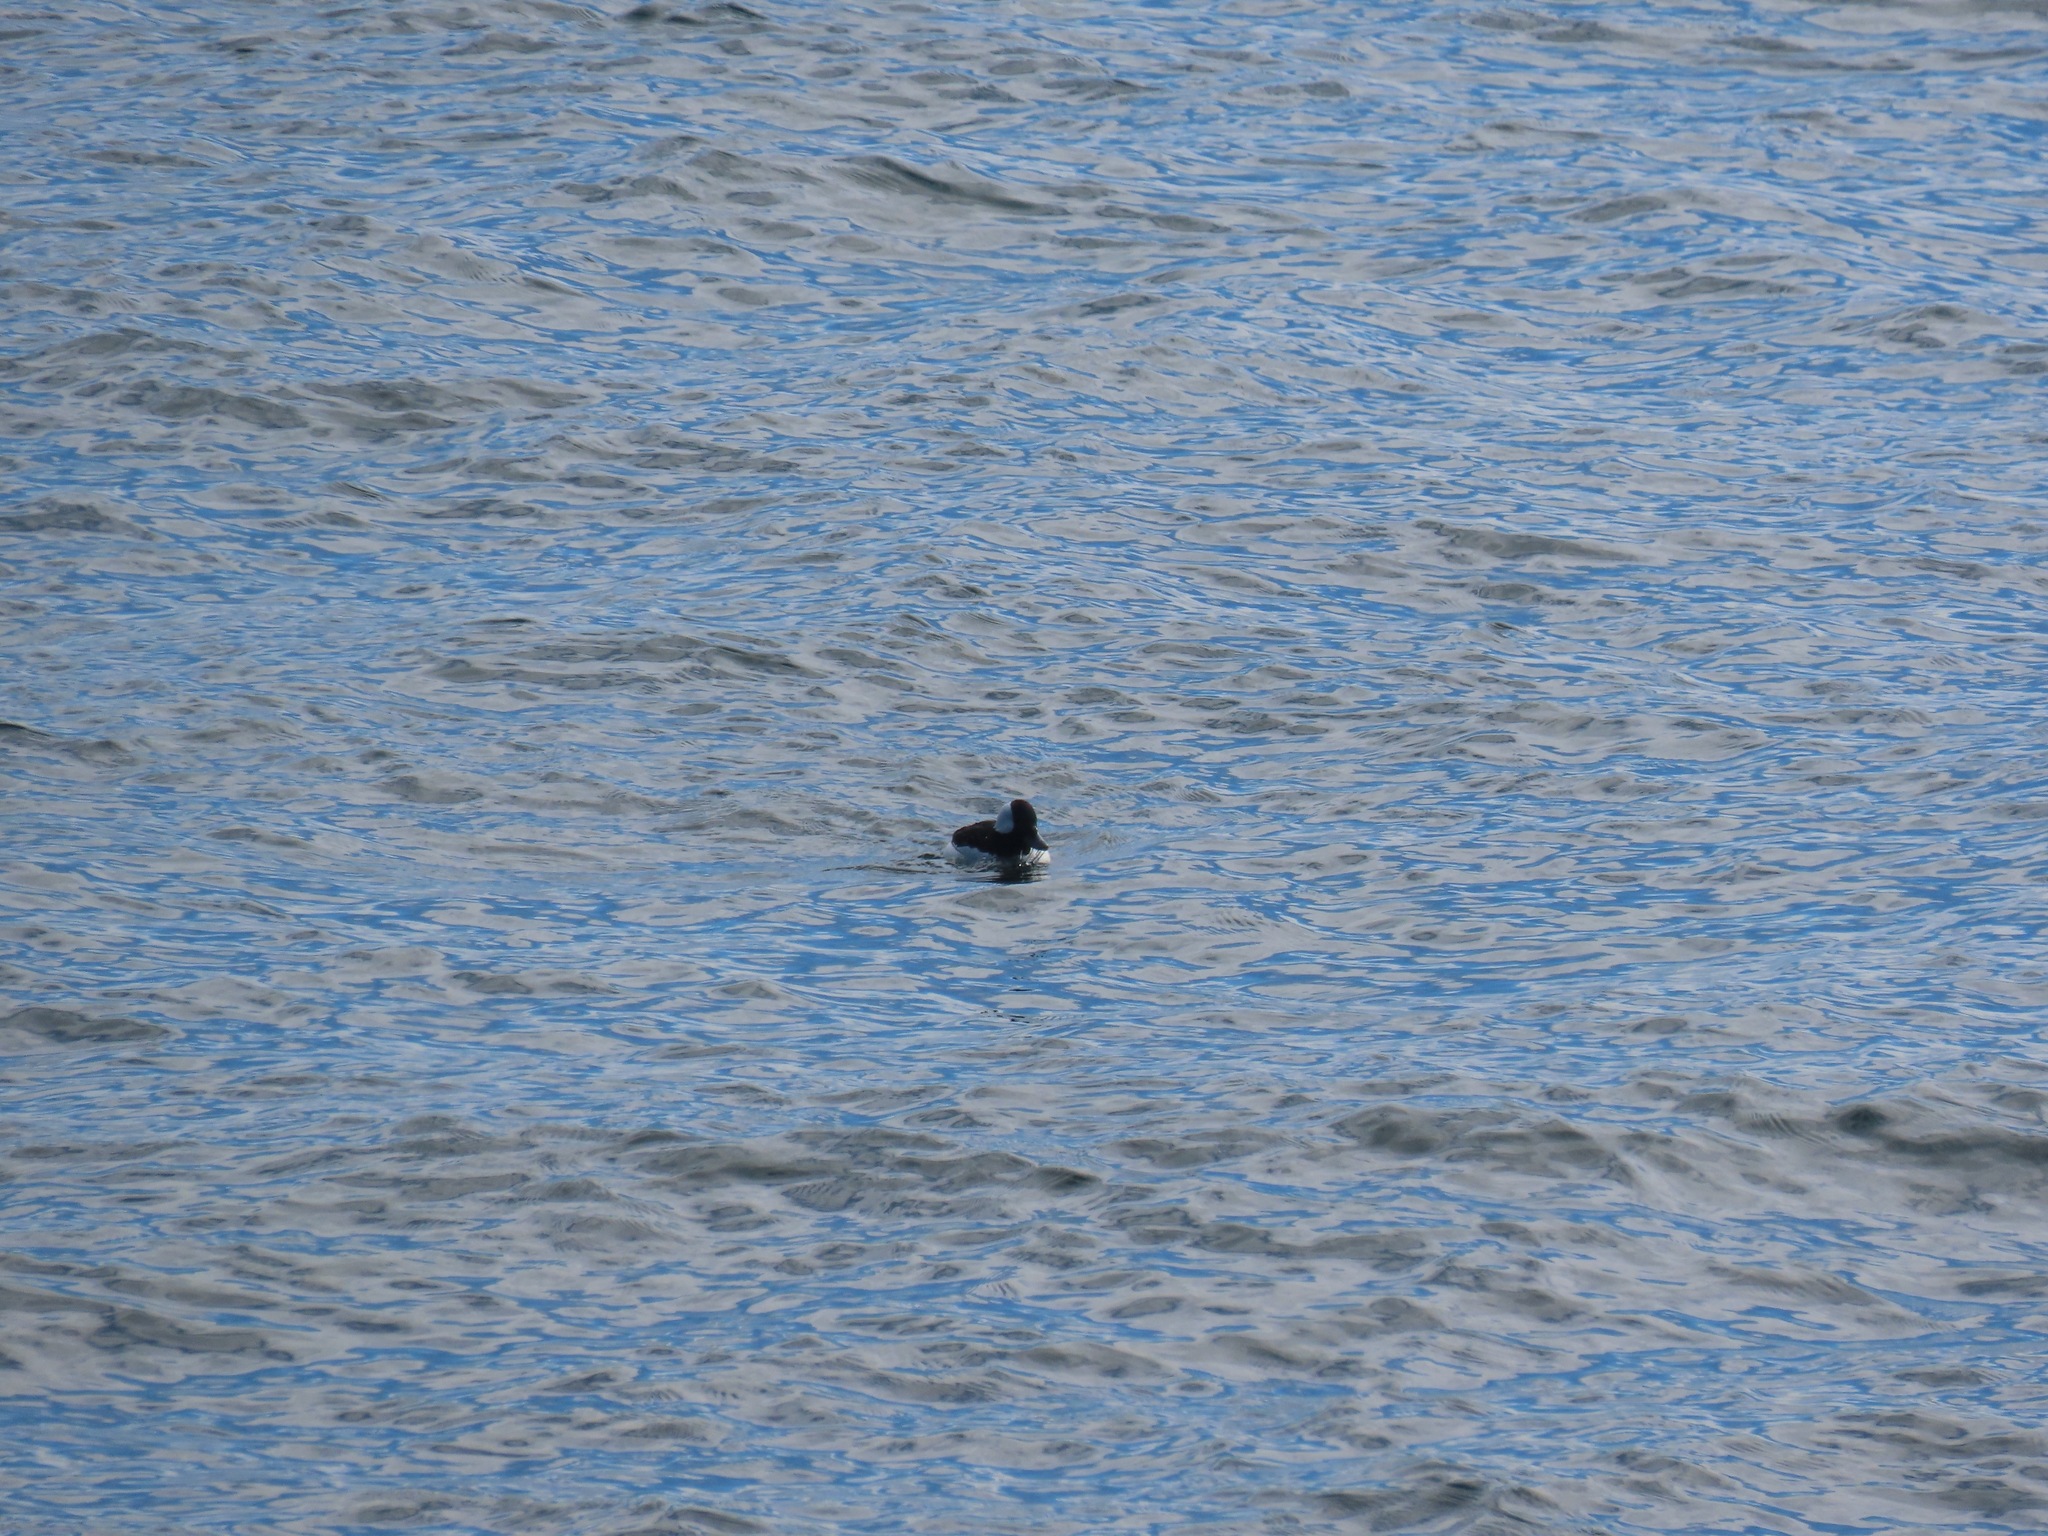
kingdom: Animalia
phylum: Chordata
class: Aves
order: Anseriformes
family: Anatidae
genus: Bucephala
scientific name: Bucephala albeola
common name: Bufflehead
